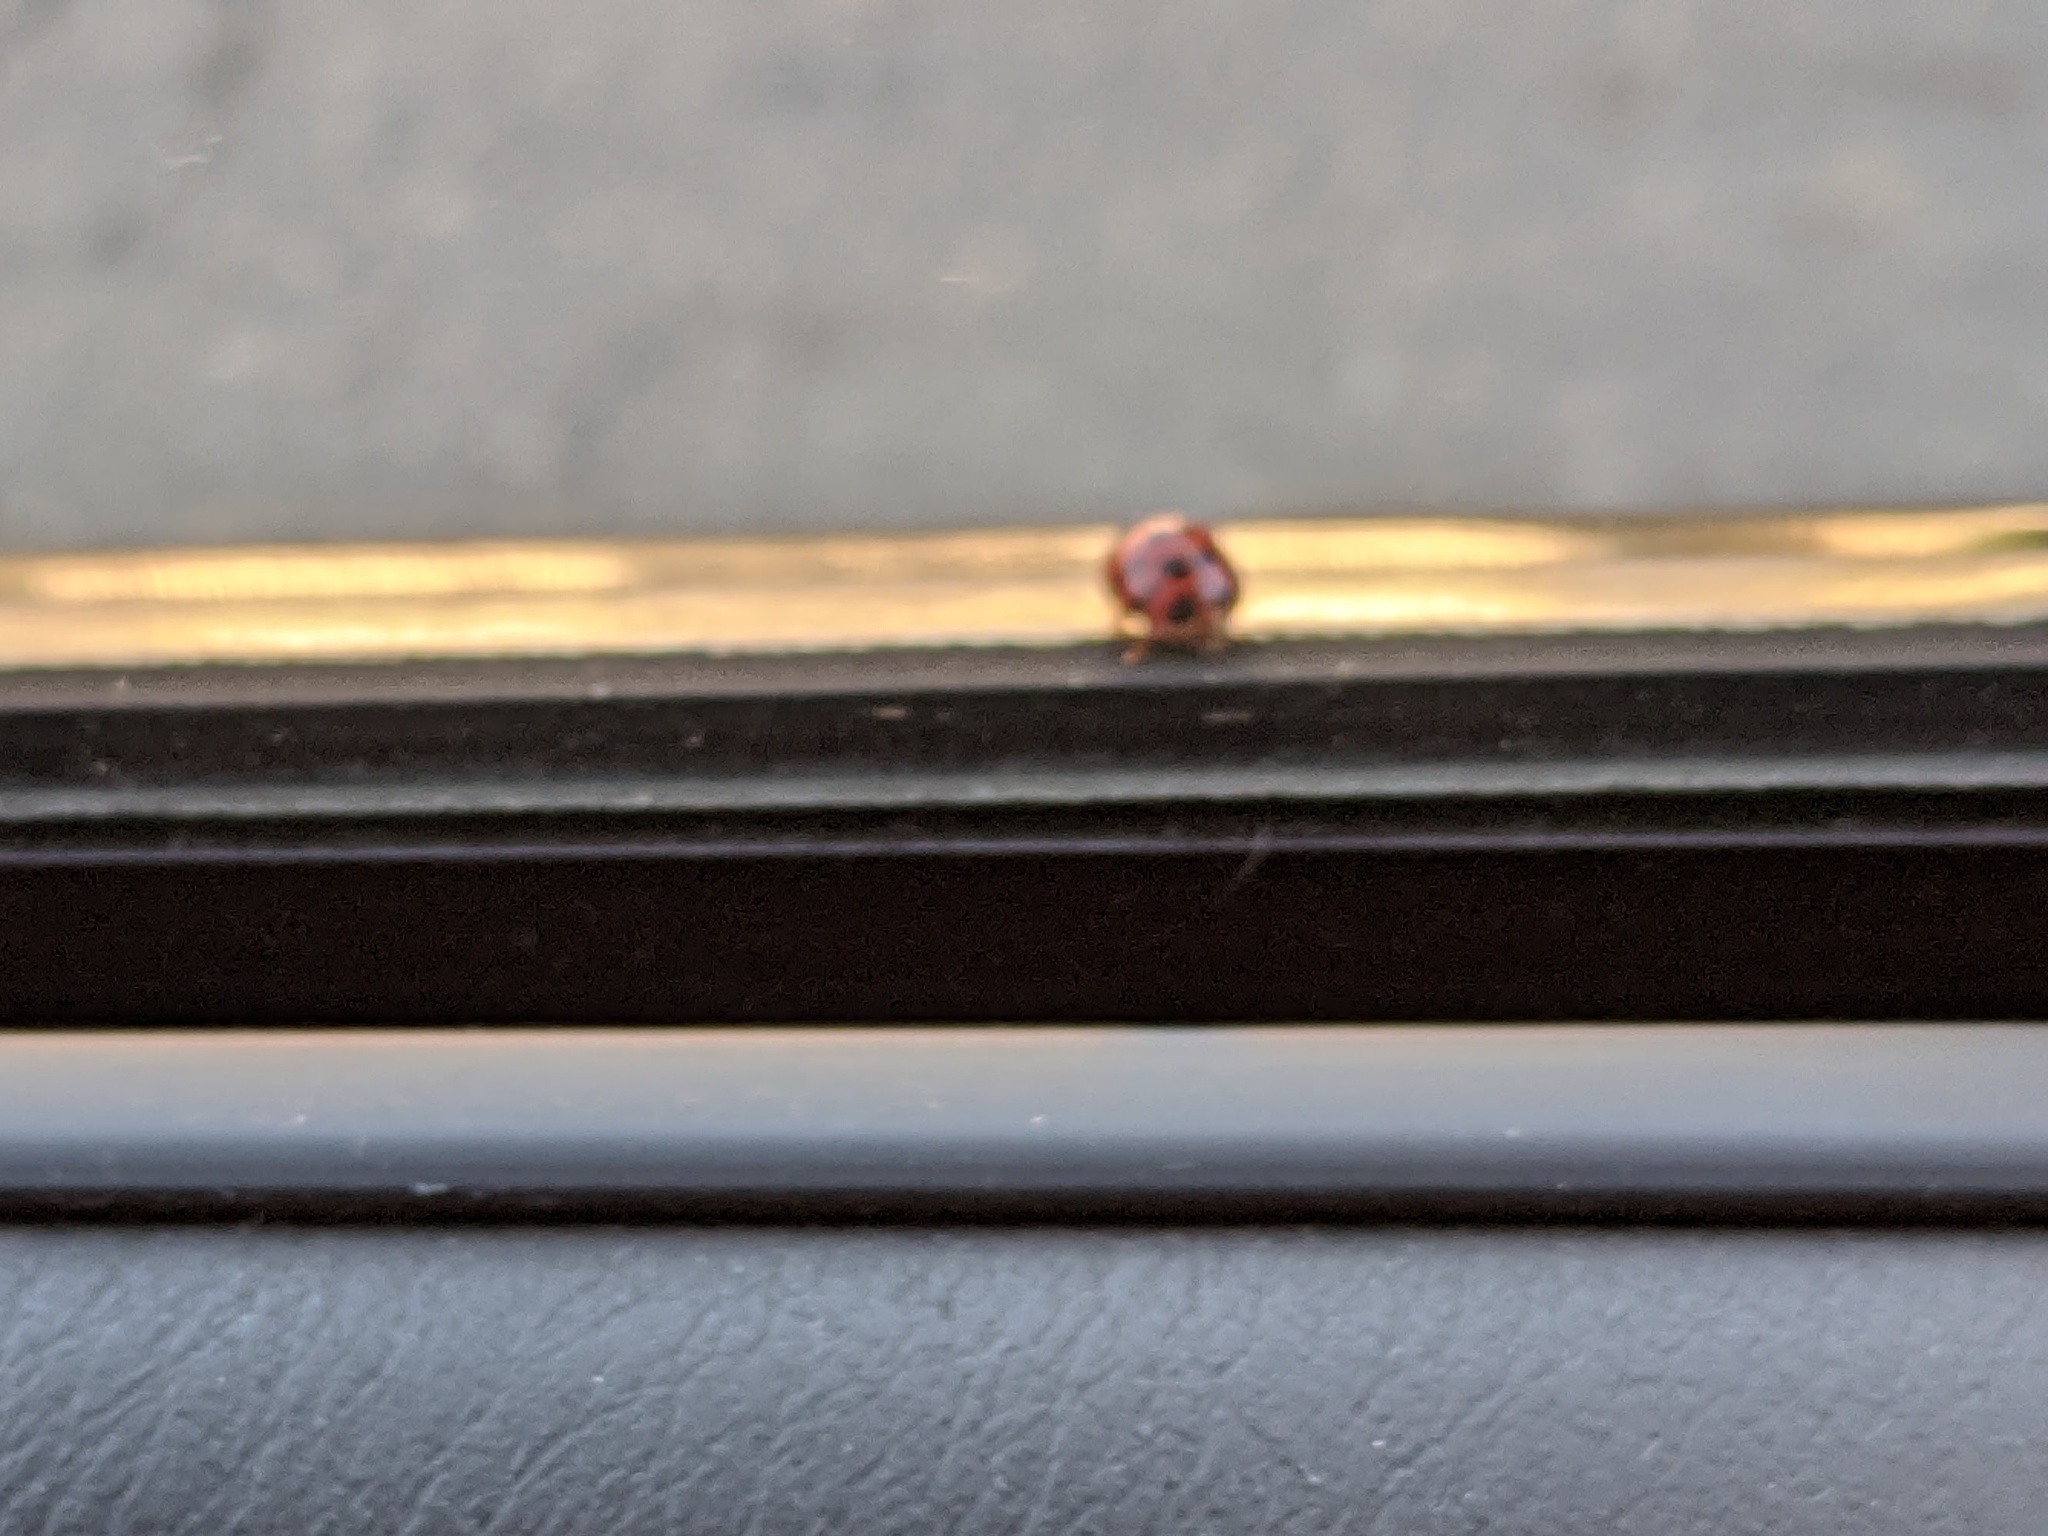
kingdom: Animalia
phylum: Arthropoda
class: Insecta
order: Coleoptera
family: Coccinellidae
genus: Harmonia
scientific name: Harmonia axyridis
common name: Harlequin ladybird
